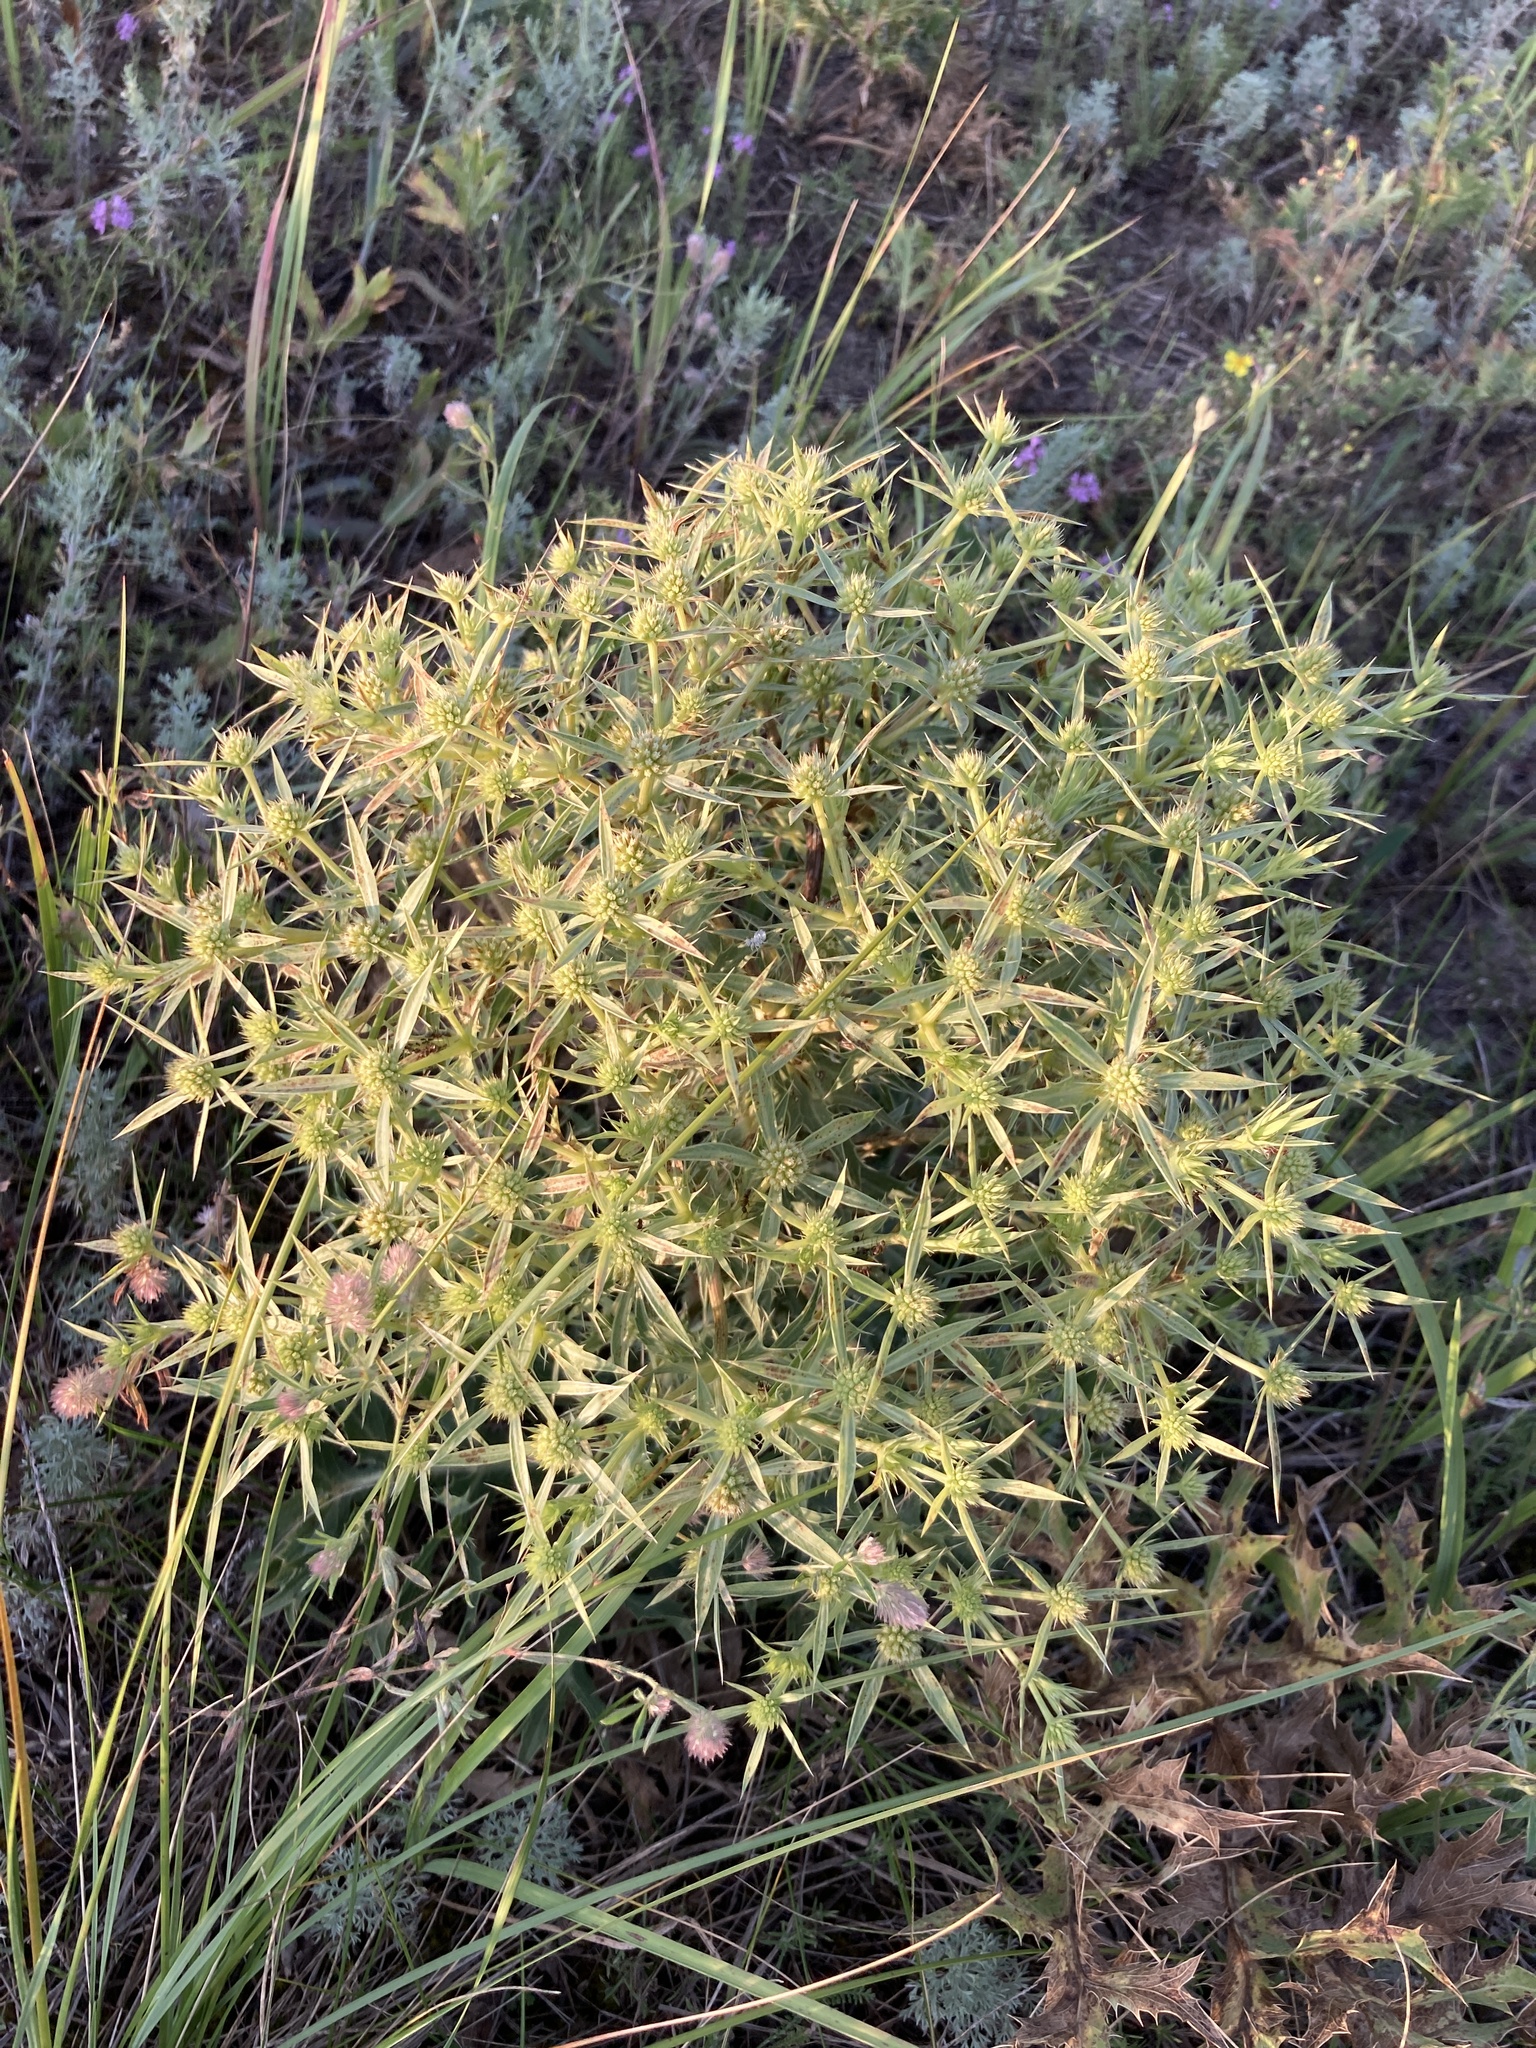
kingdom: Plantae
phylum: Tracheophyta
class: Magnoliopsida
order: Apiales
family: Apiaceae
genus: Eryngium
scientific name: Eryngium campestre
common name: Field eryngo
